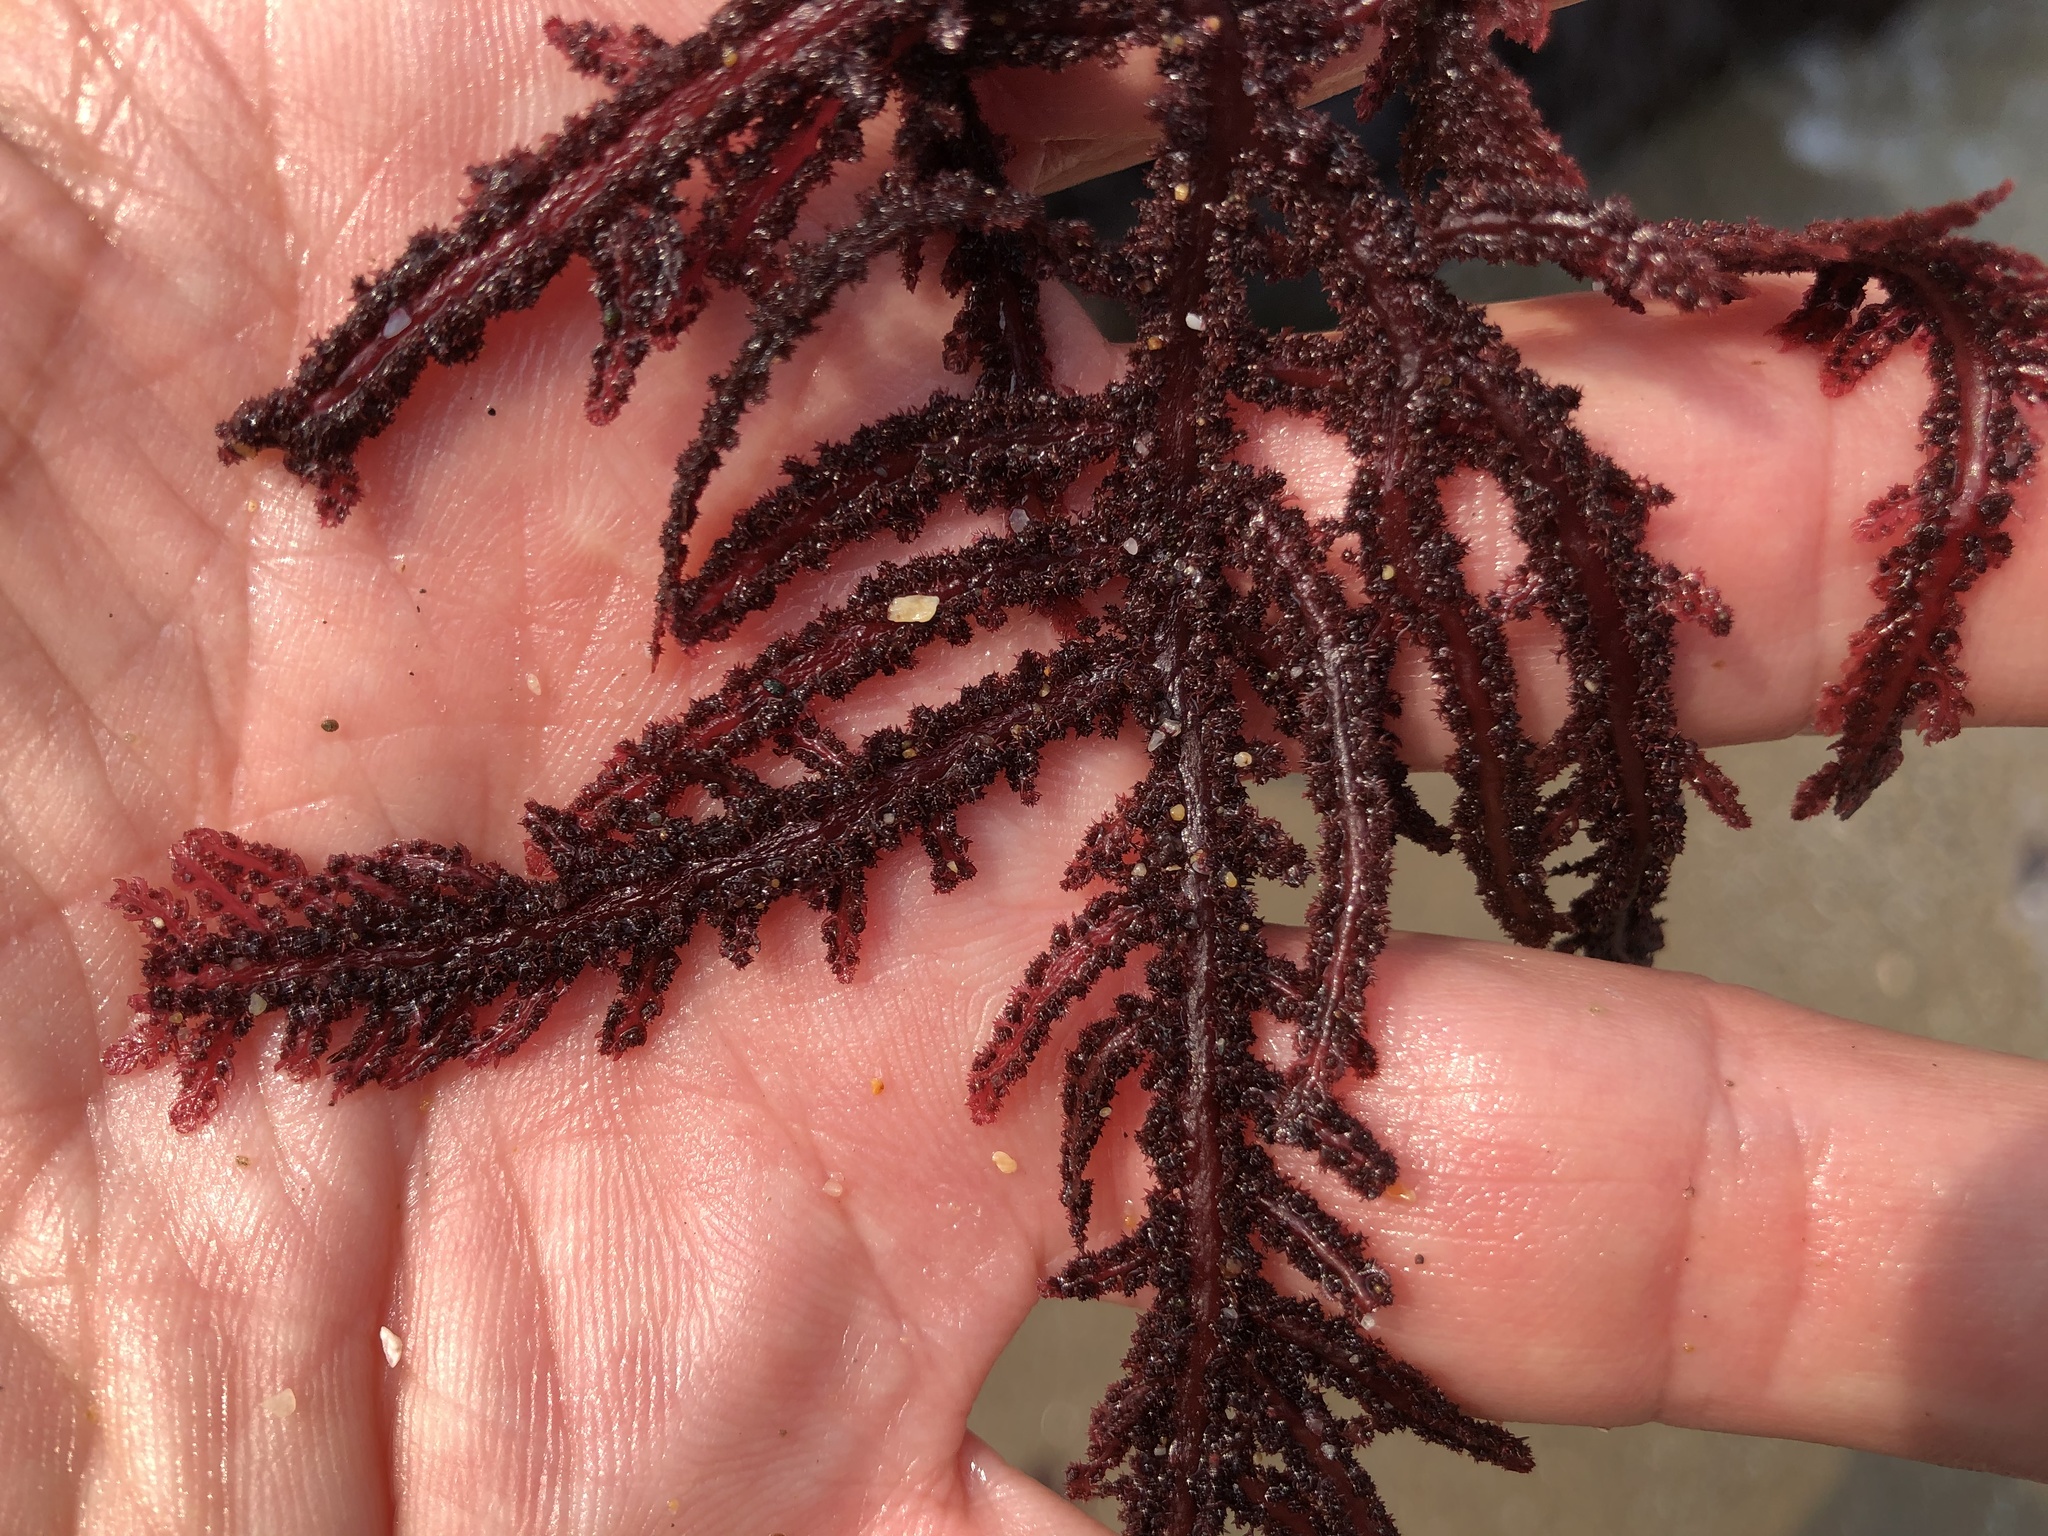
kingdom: Plantae
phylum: Rhodophyta
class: Florideophyceae
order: Ceramiales
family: Wrangeliaceae
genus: Neoptilota
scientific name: Neoptilota densa
